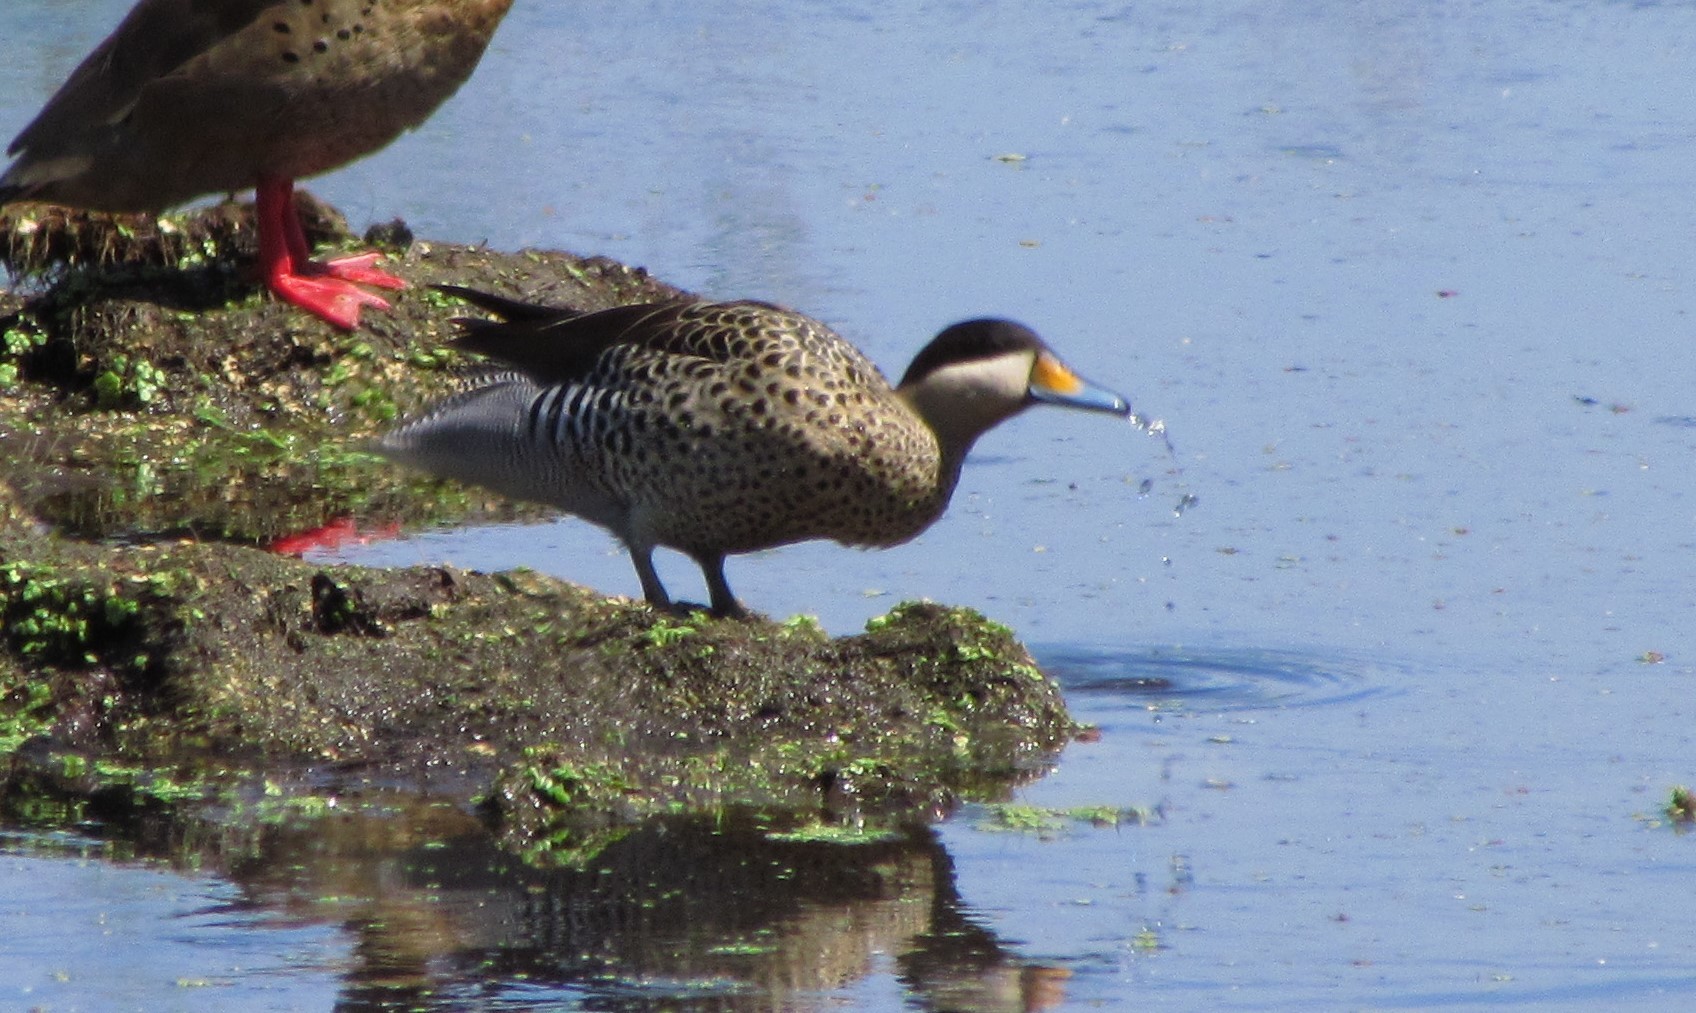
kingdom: Animalia
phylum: Chordata
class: Aves
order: Anseriformes
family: Anatidae
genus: Spatula
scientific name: Spatula versicolor
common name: Silver teal
